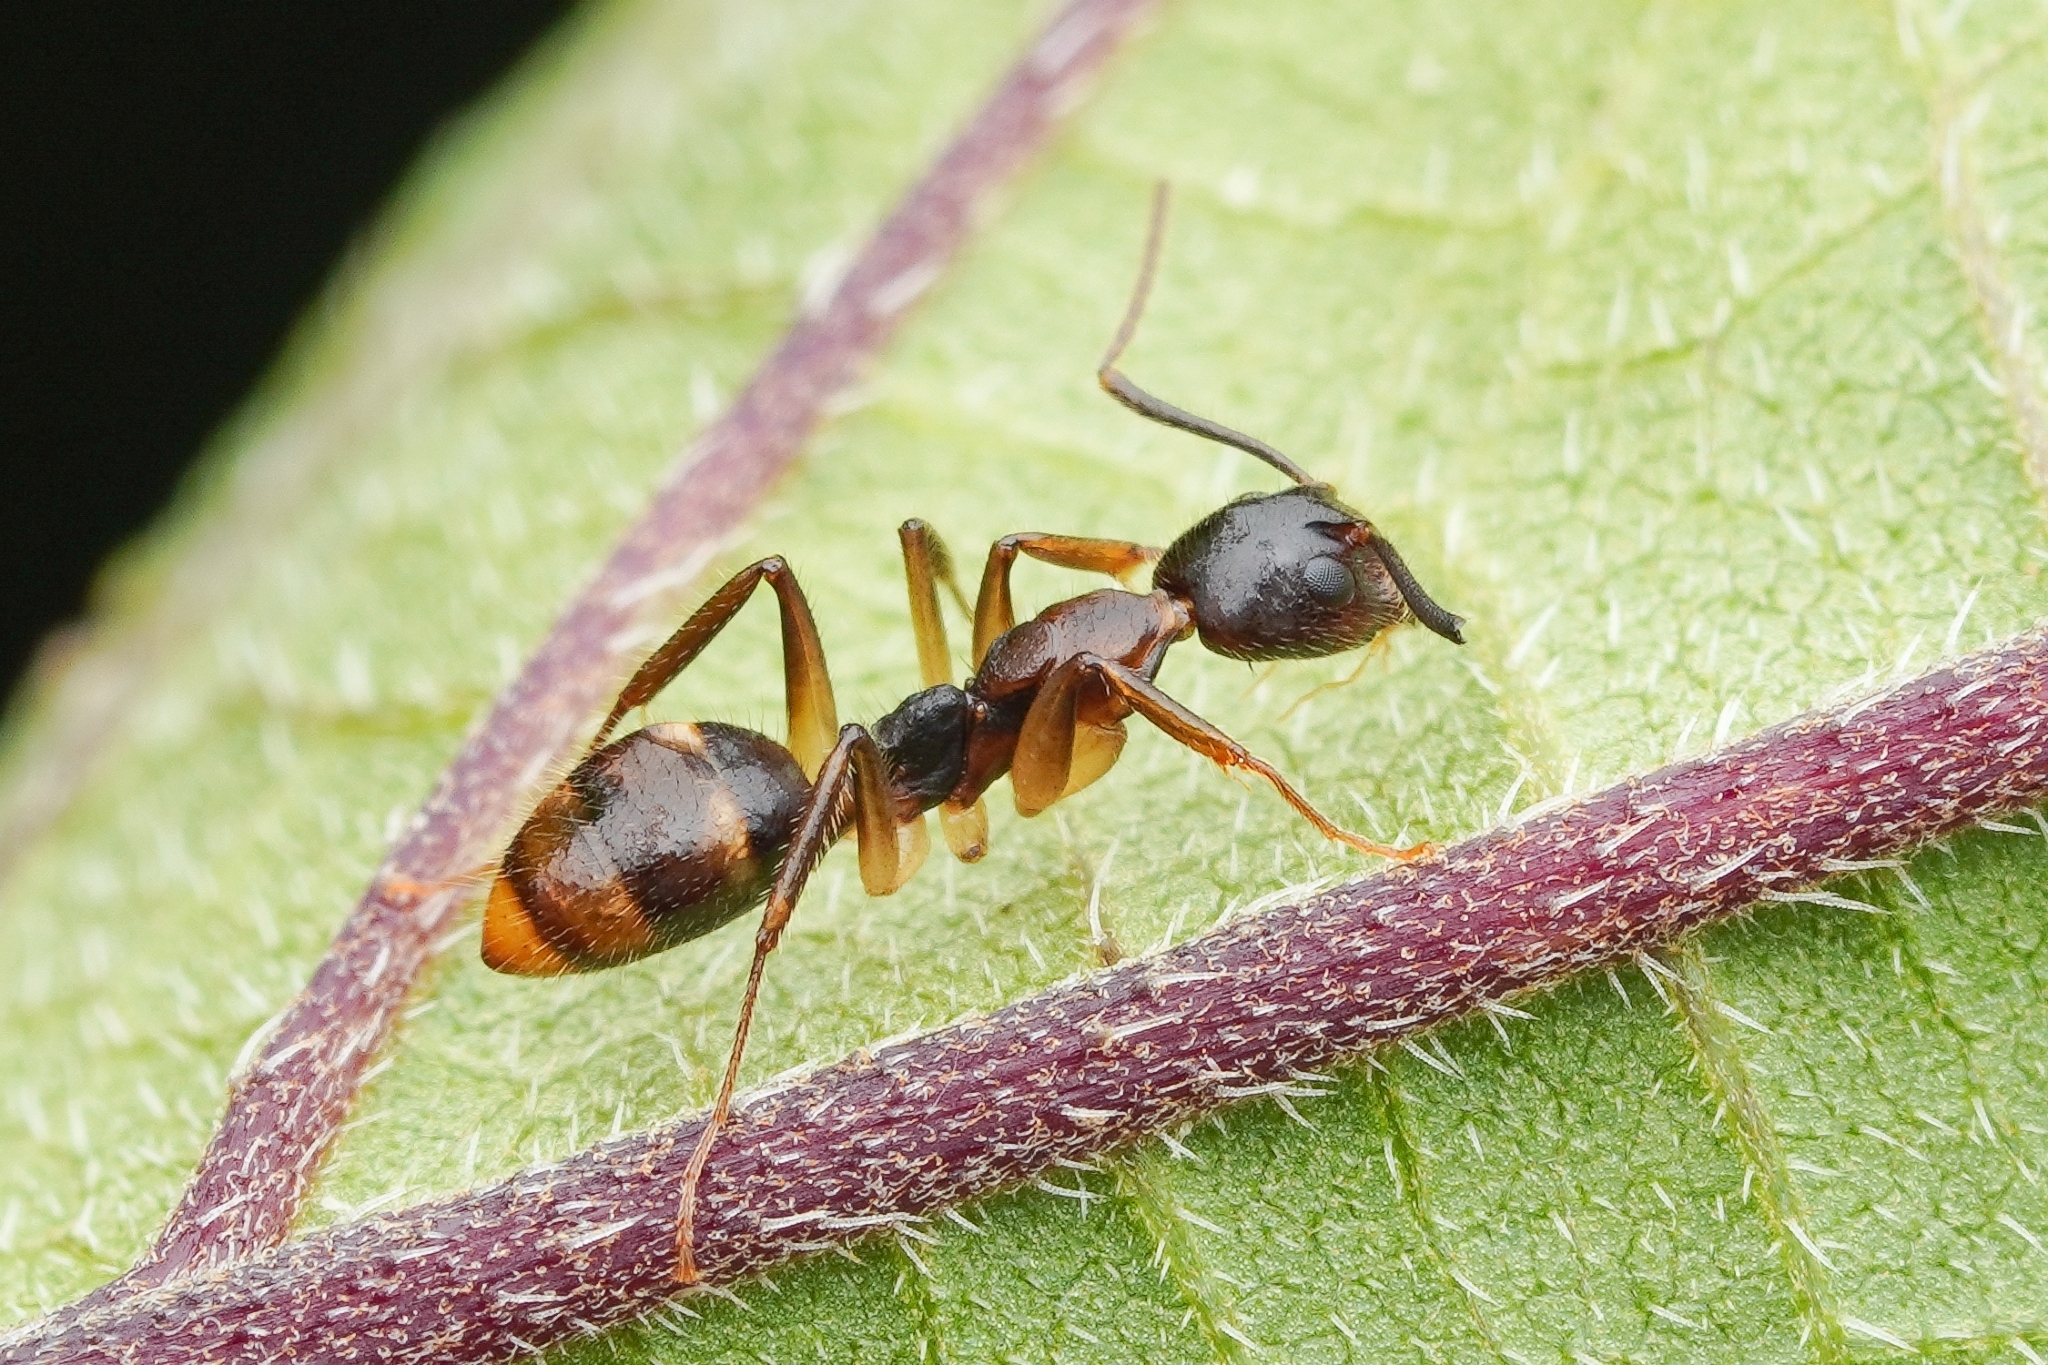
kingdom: Animalia
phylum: Arthropoda
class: Insecta
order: Hymenoptera
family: Formicidae
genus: Dolichoderus
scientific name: Dolichoderus diversus
